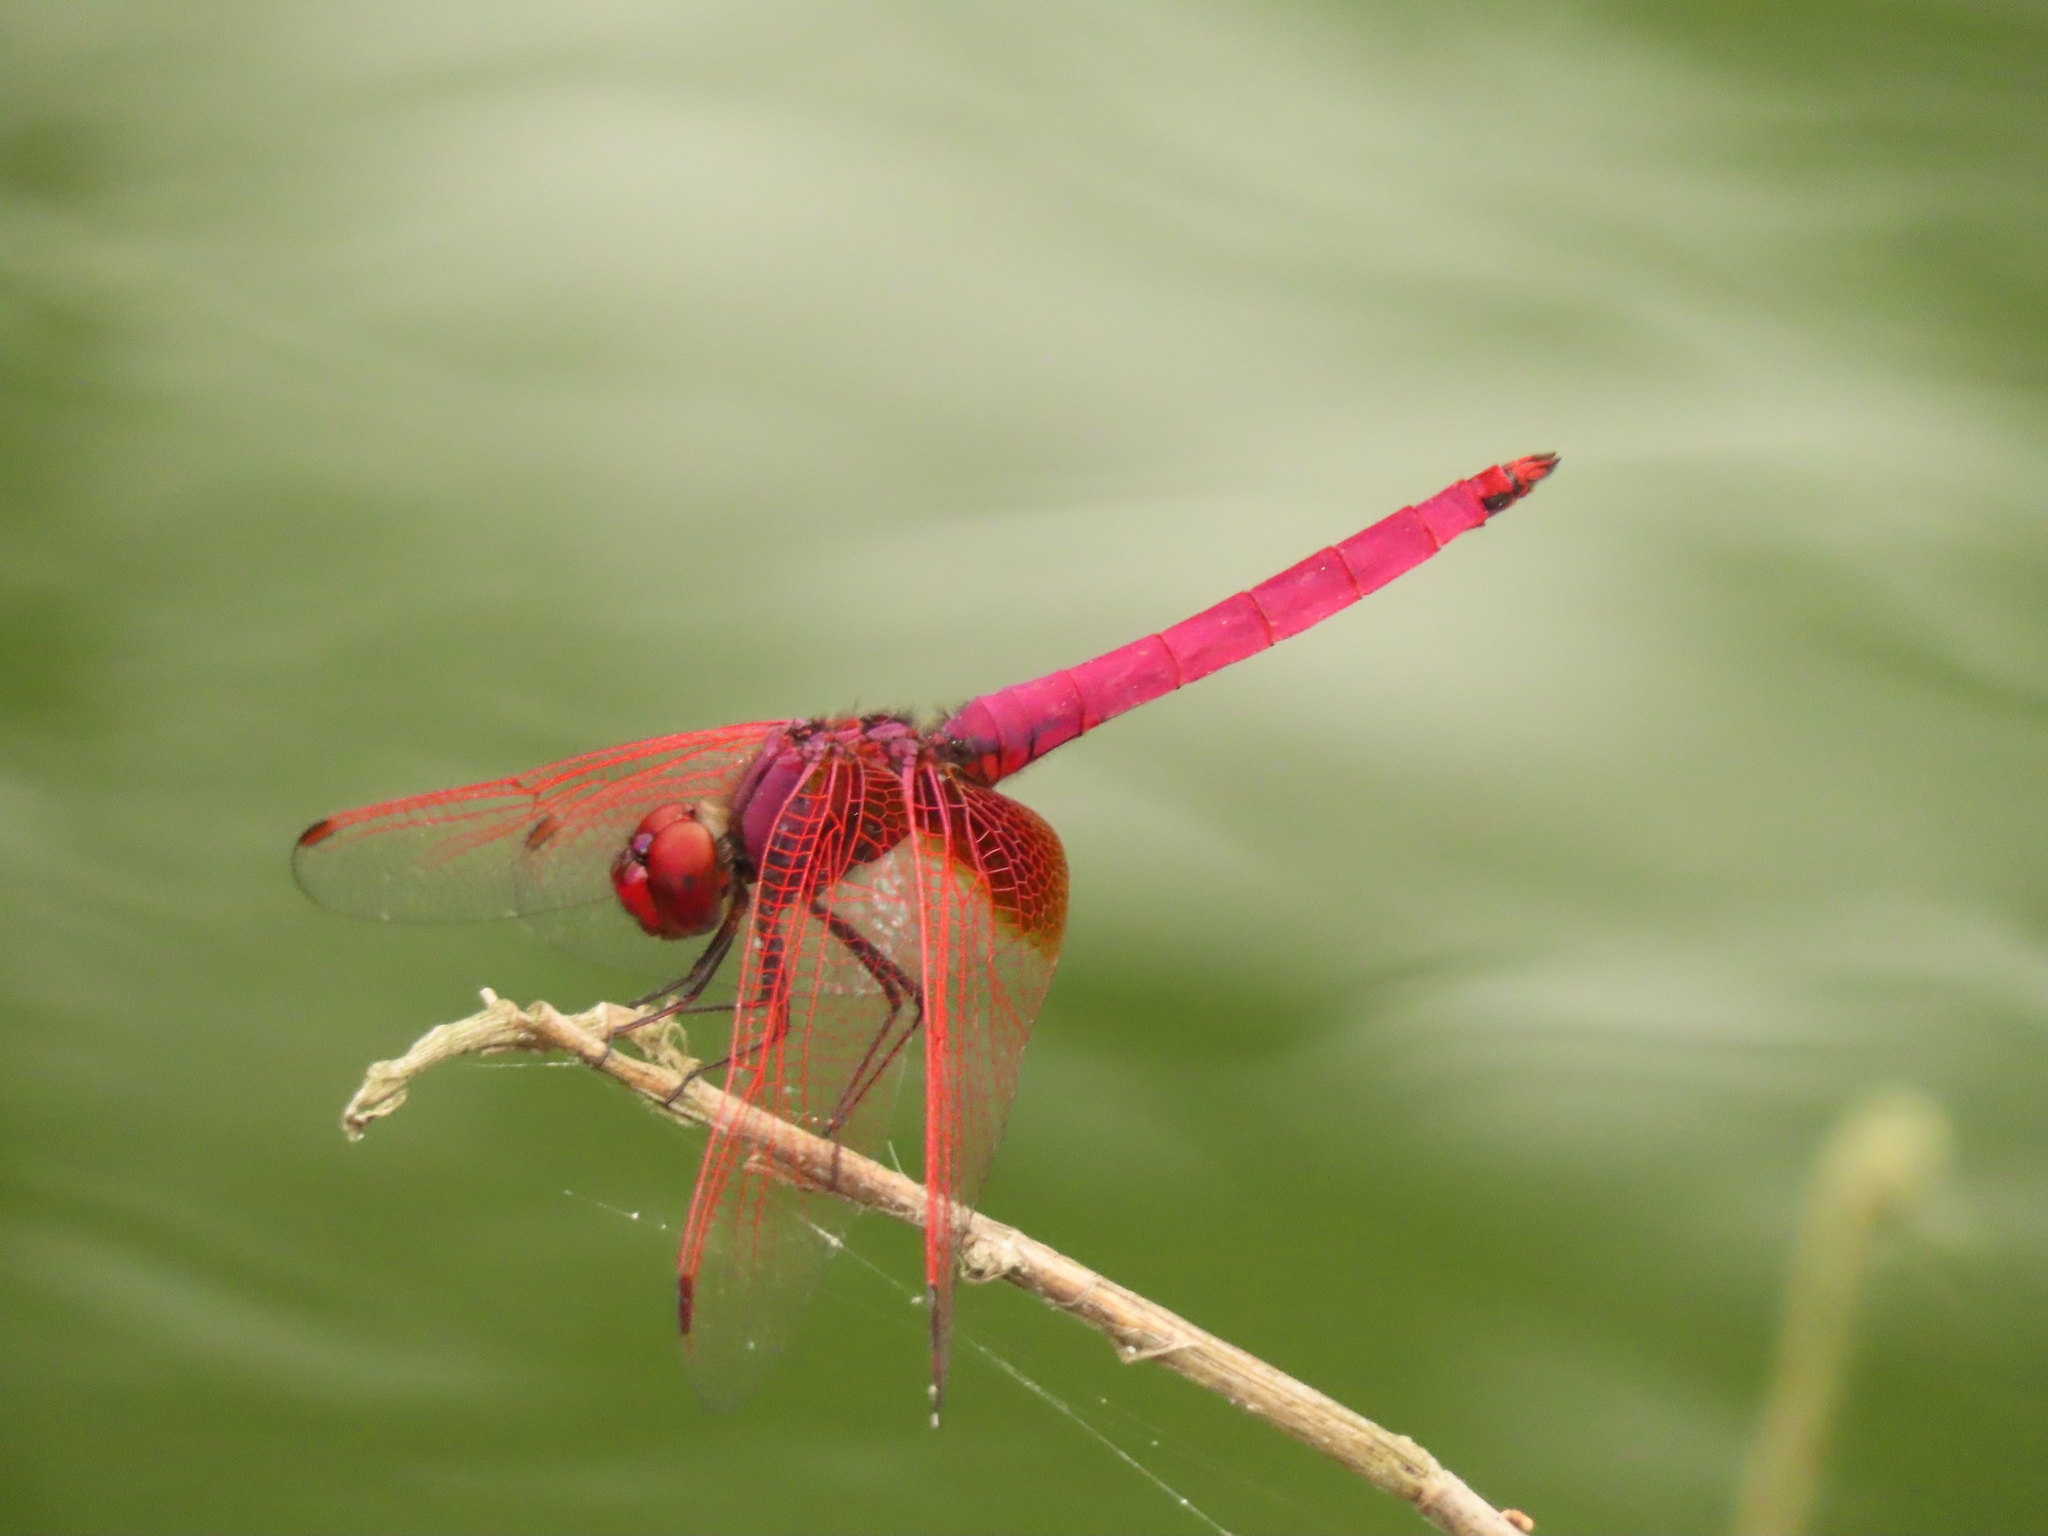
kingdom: Animalia
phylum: Arthropoda
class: Insecta
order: Odonata
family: Libellulidae
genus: Trithemis
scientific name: Trithemis aurora
